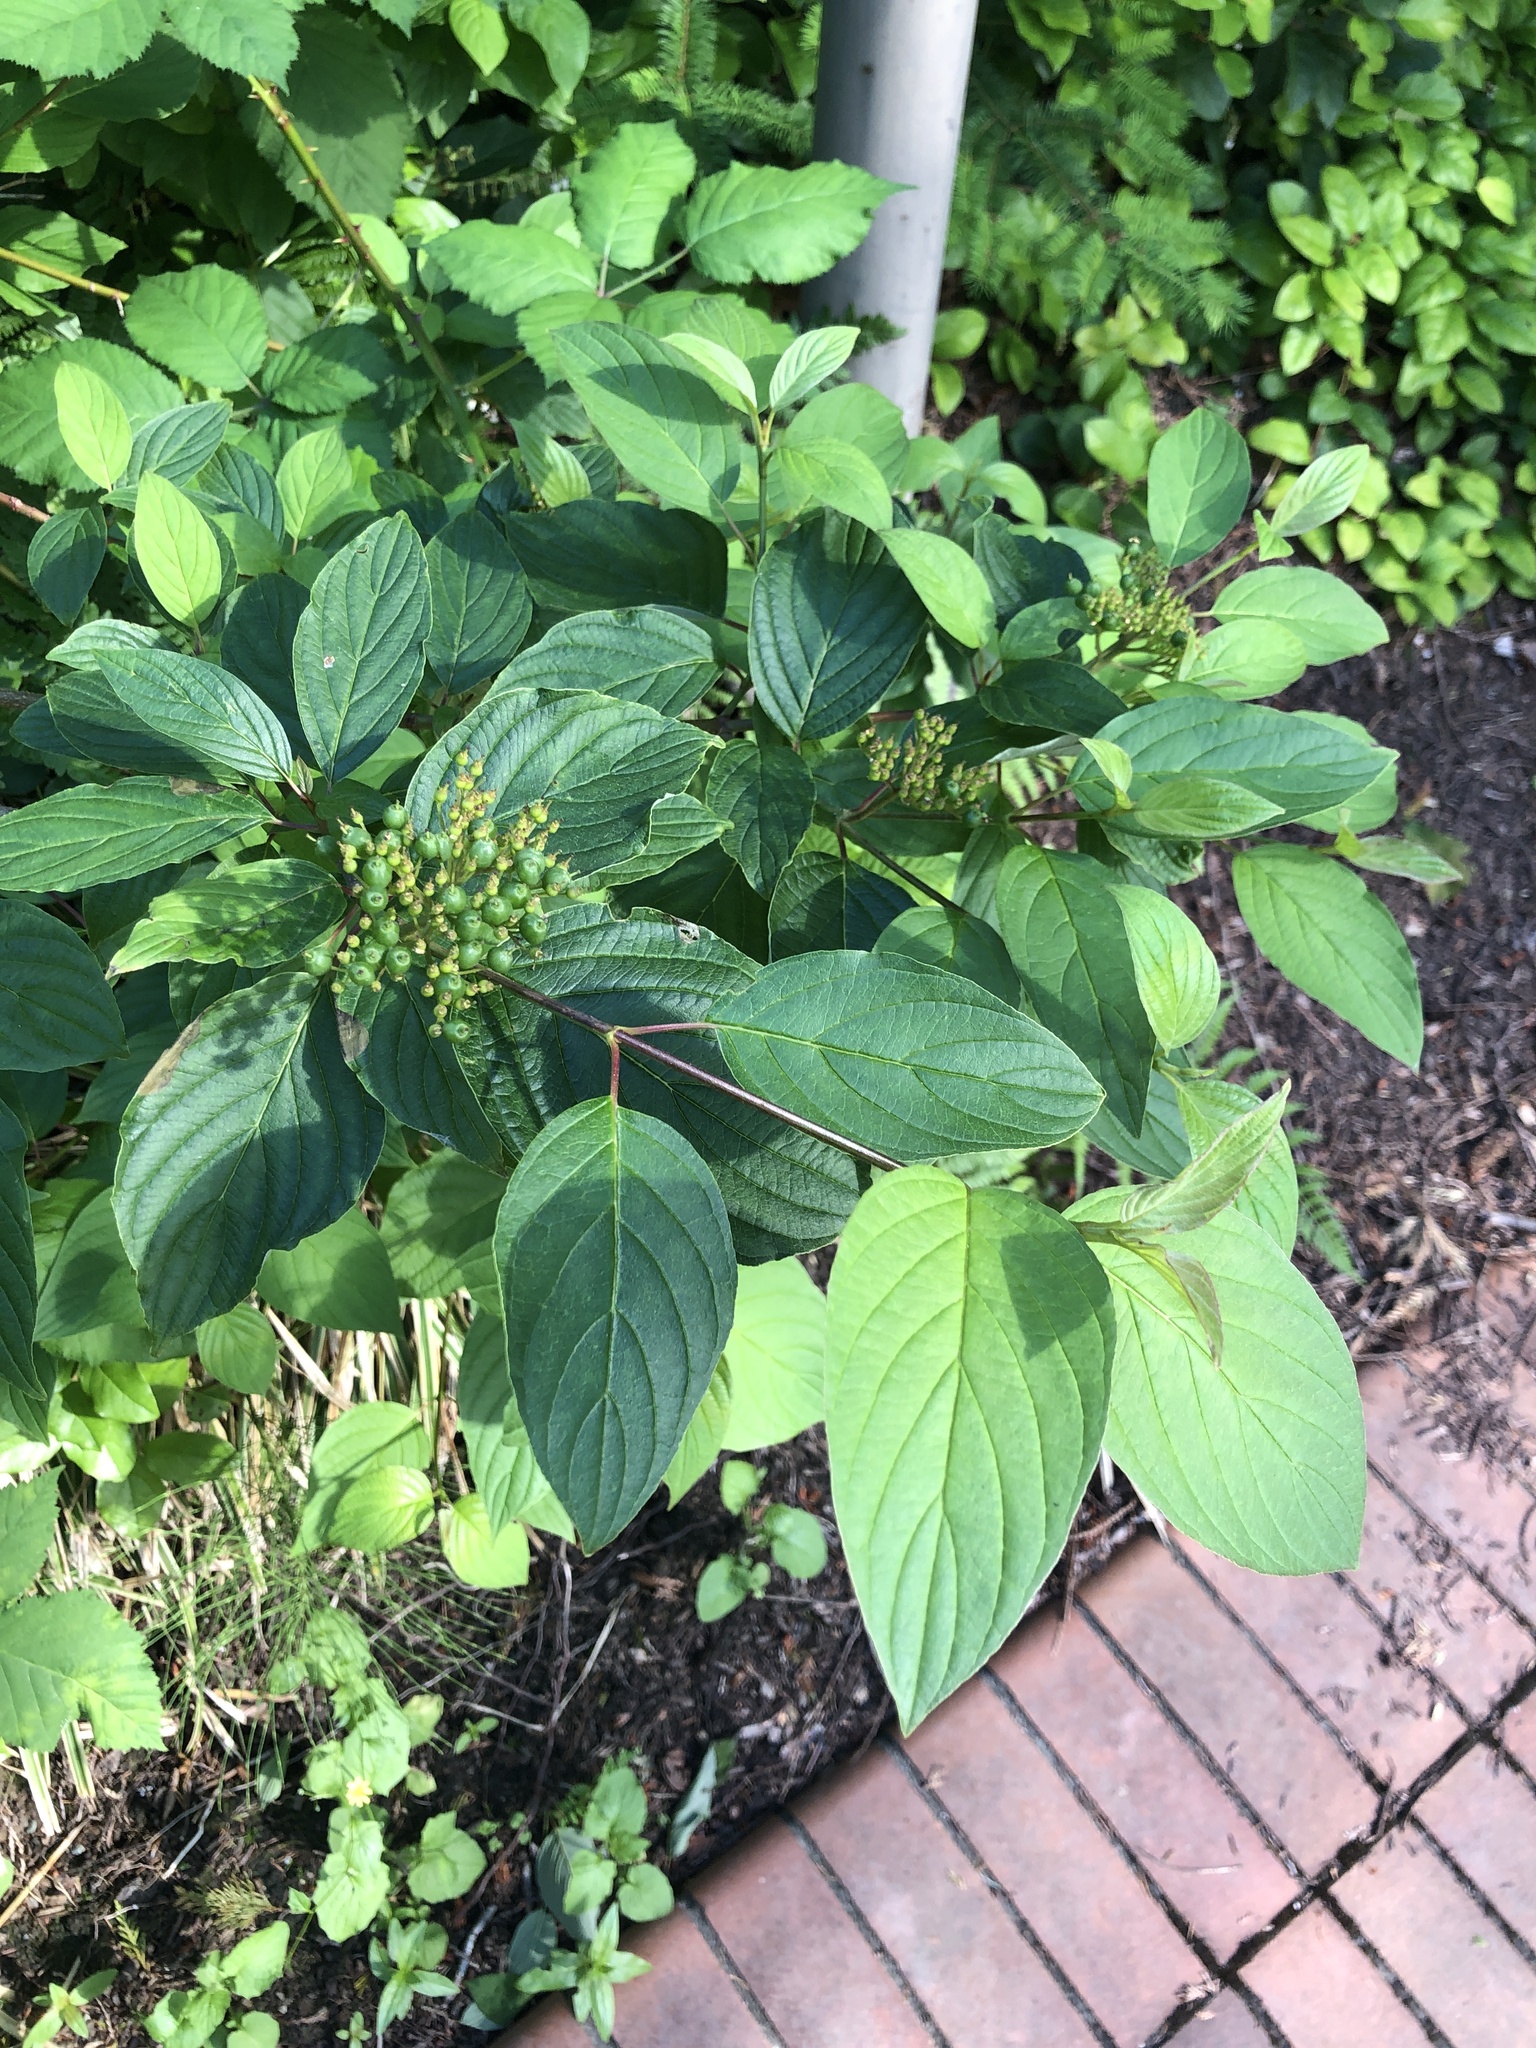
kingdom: Plantae
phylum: Tracheophyta
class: Magnoliopsida
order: Cornales
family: Cornaceae
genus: Cornus
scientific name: Cornus sericea
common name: Red-osier dogwood
